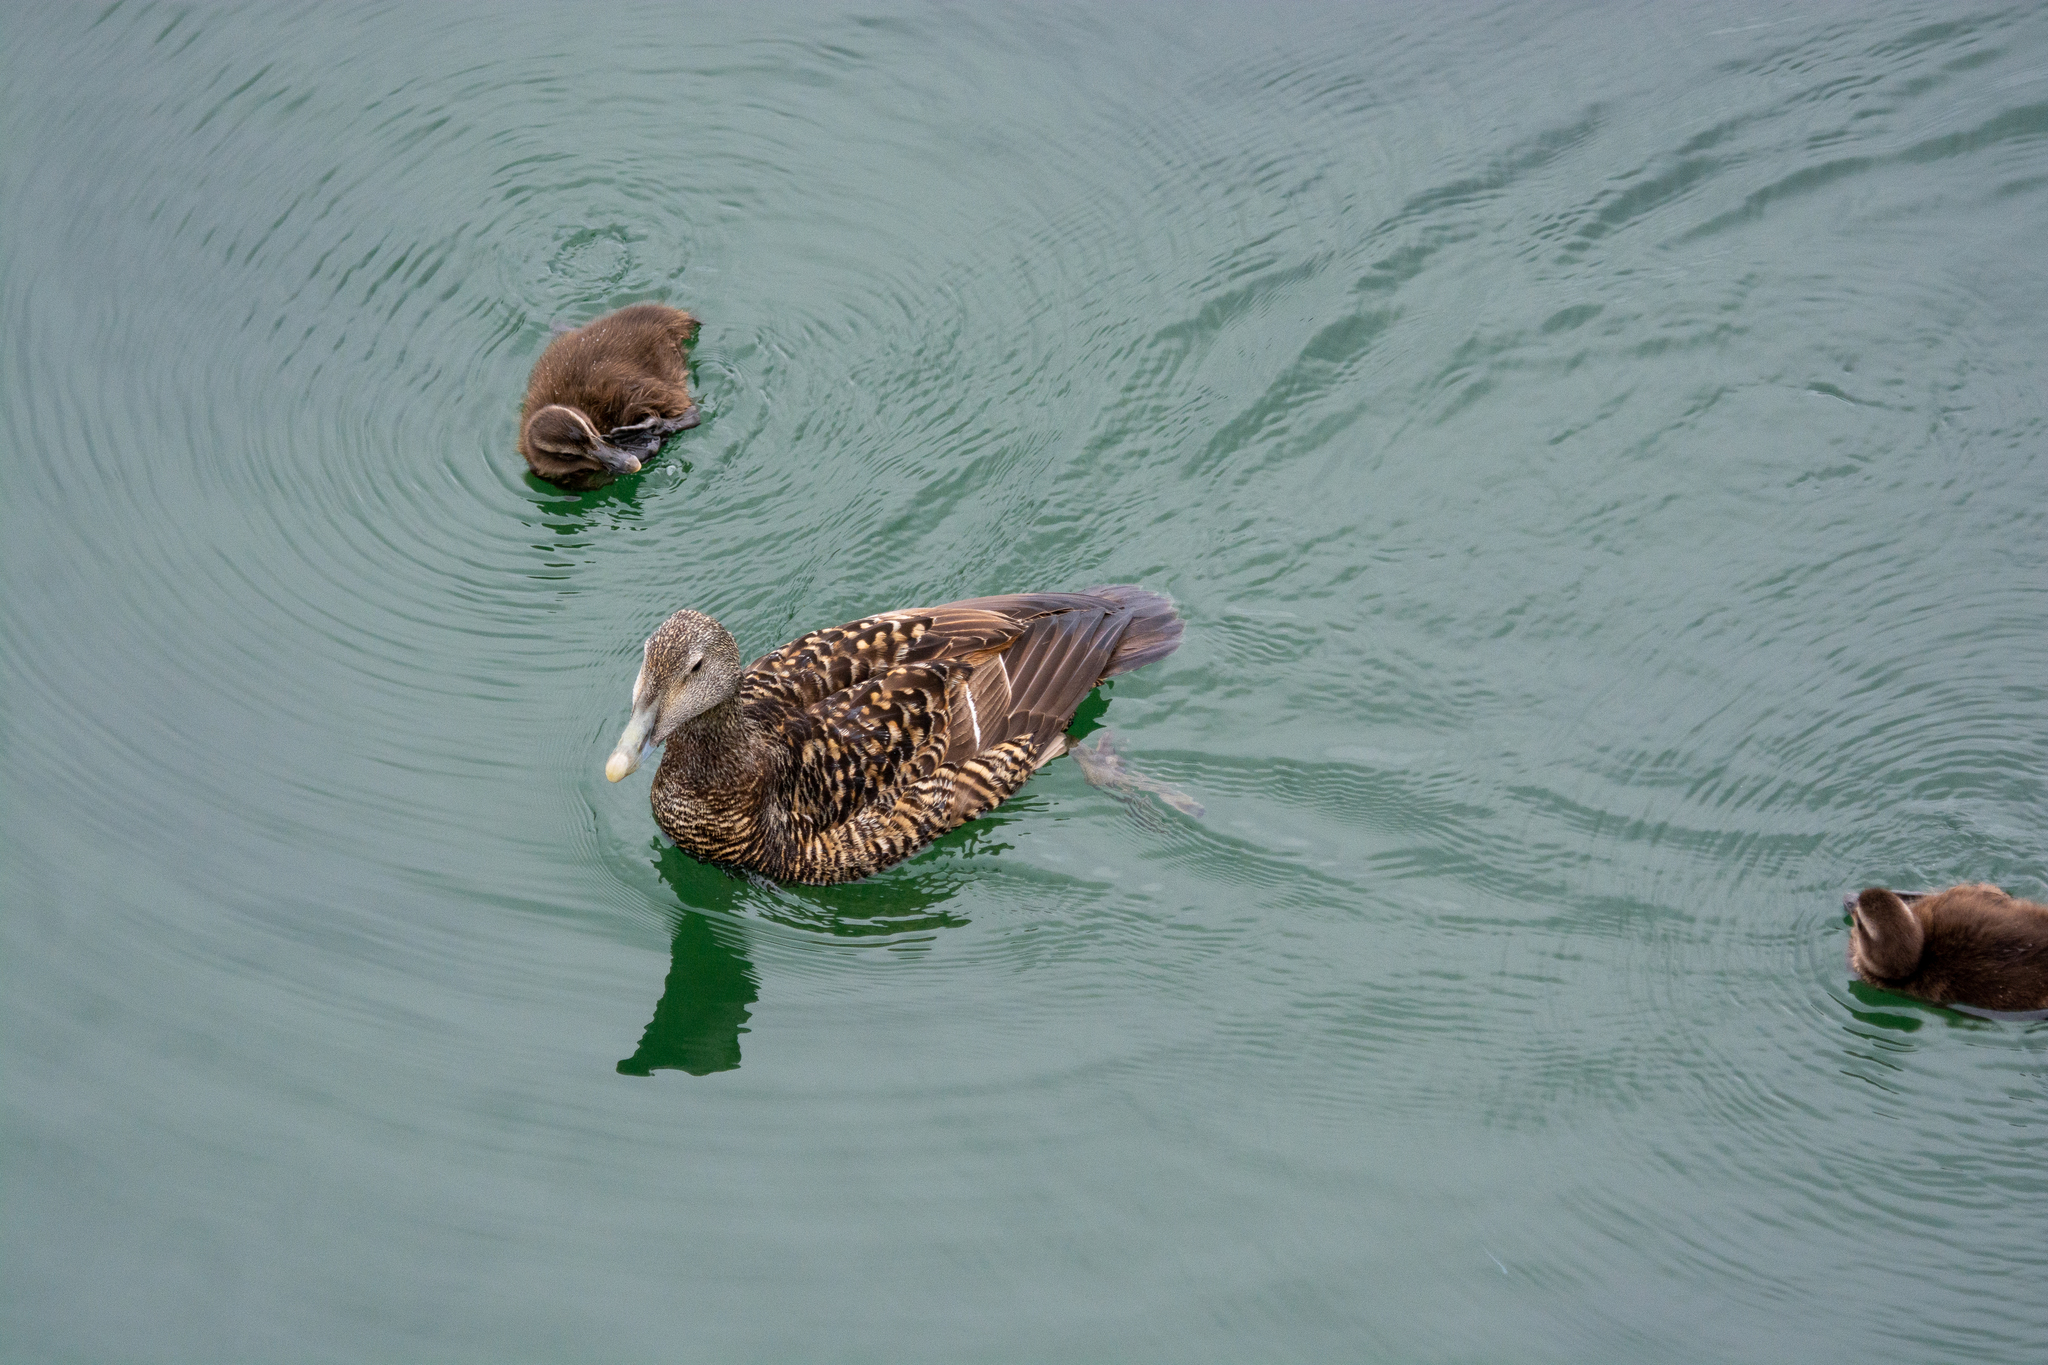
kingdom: Animalia
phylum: Chordata
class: Aves
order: Anseriformes
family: Anatidae
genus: Somateria
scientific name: Somateria mollissima
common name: Common eider
